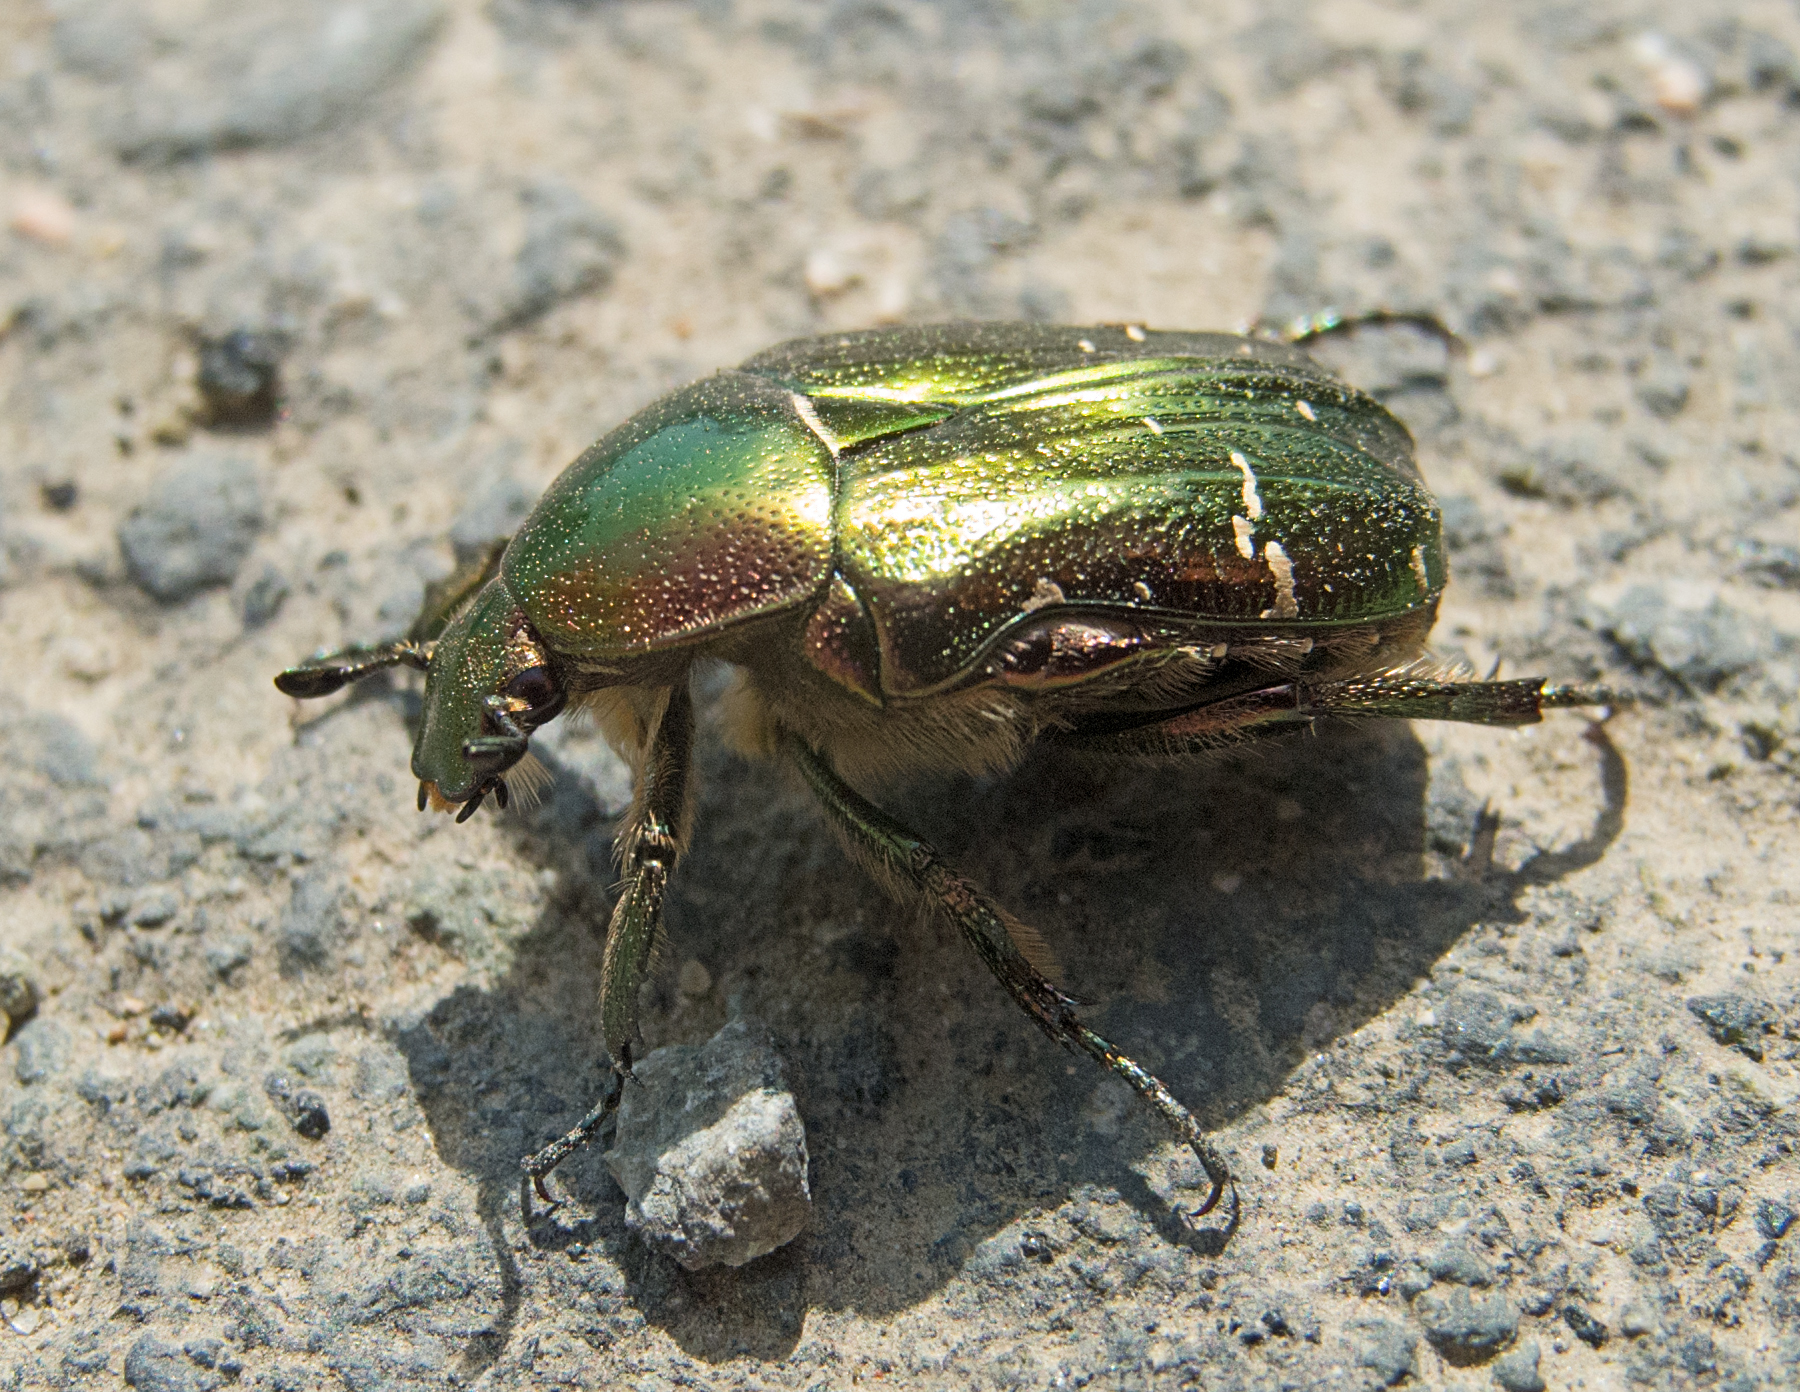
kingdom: Animalia
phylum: Arthropoda
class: Insecta
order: Coleoptera
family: Scarabaeidae
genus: Cetonia
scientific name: Cetonia aurata
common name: Rose chafer
